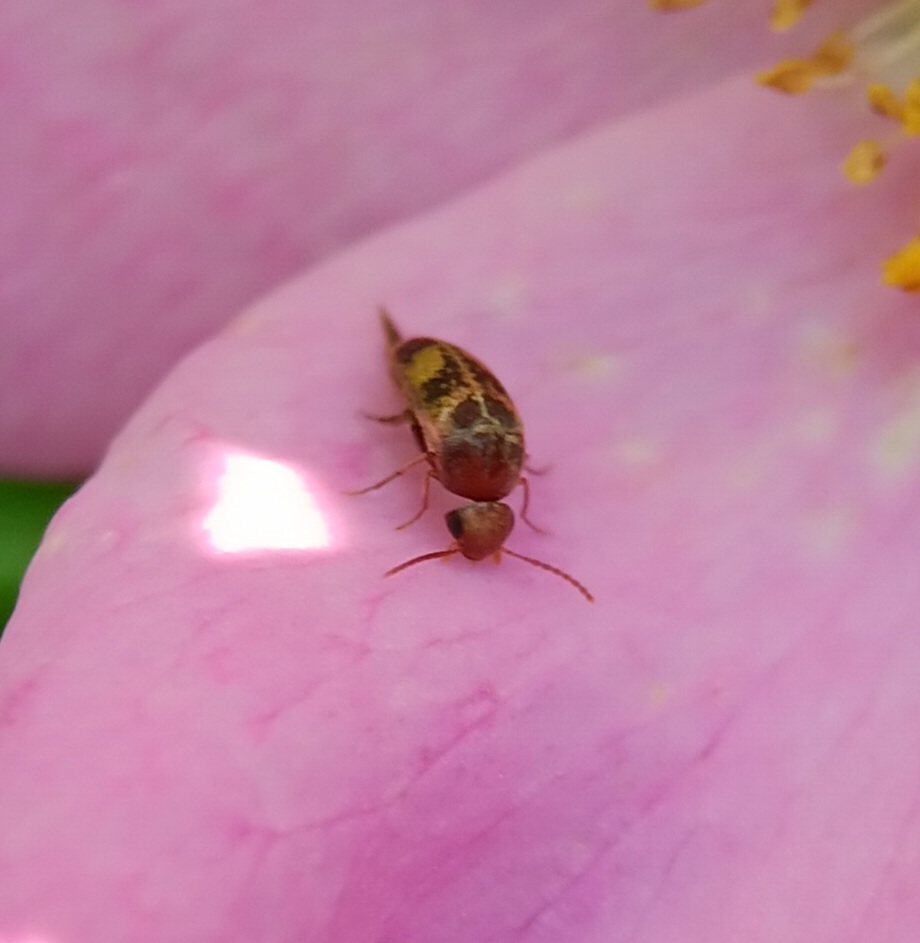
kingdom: Animalia
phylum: Arthropoda
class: Insecta
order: Coleoptera
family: Mordellidae
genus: Mordellistena
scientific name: Mordellistena masoni
